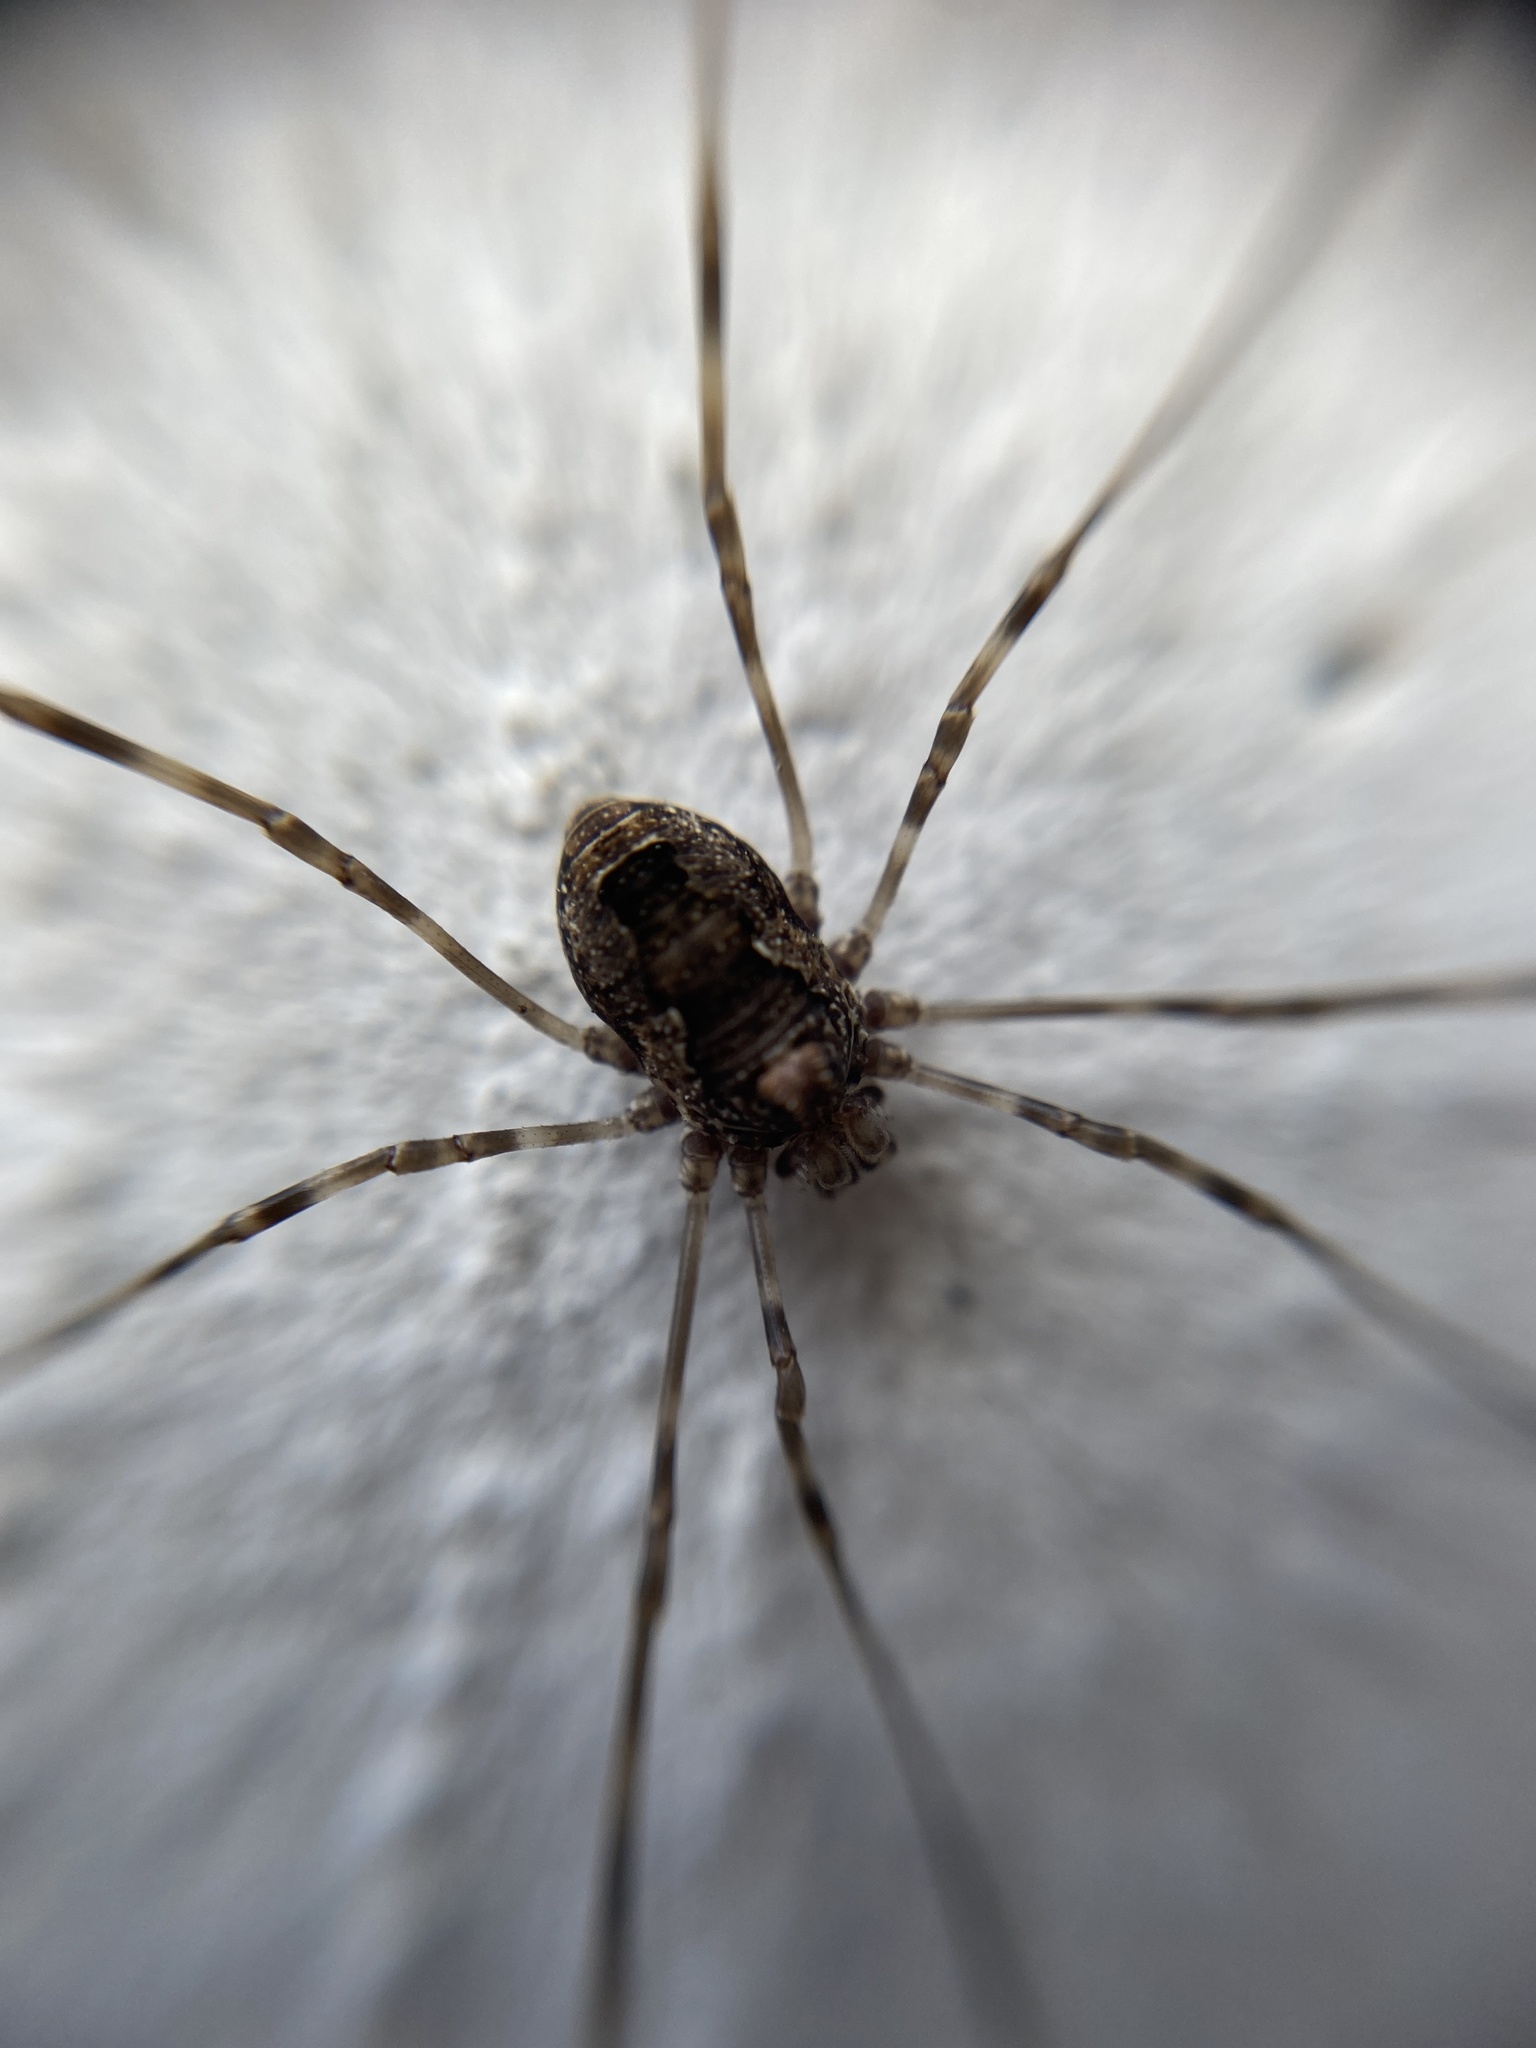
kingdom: Animalia
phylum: Arthropoda
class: Arachnida
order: Opiliones
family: Phalangiidae
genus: Platybunus
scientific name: Platybunus pinetorum
